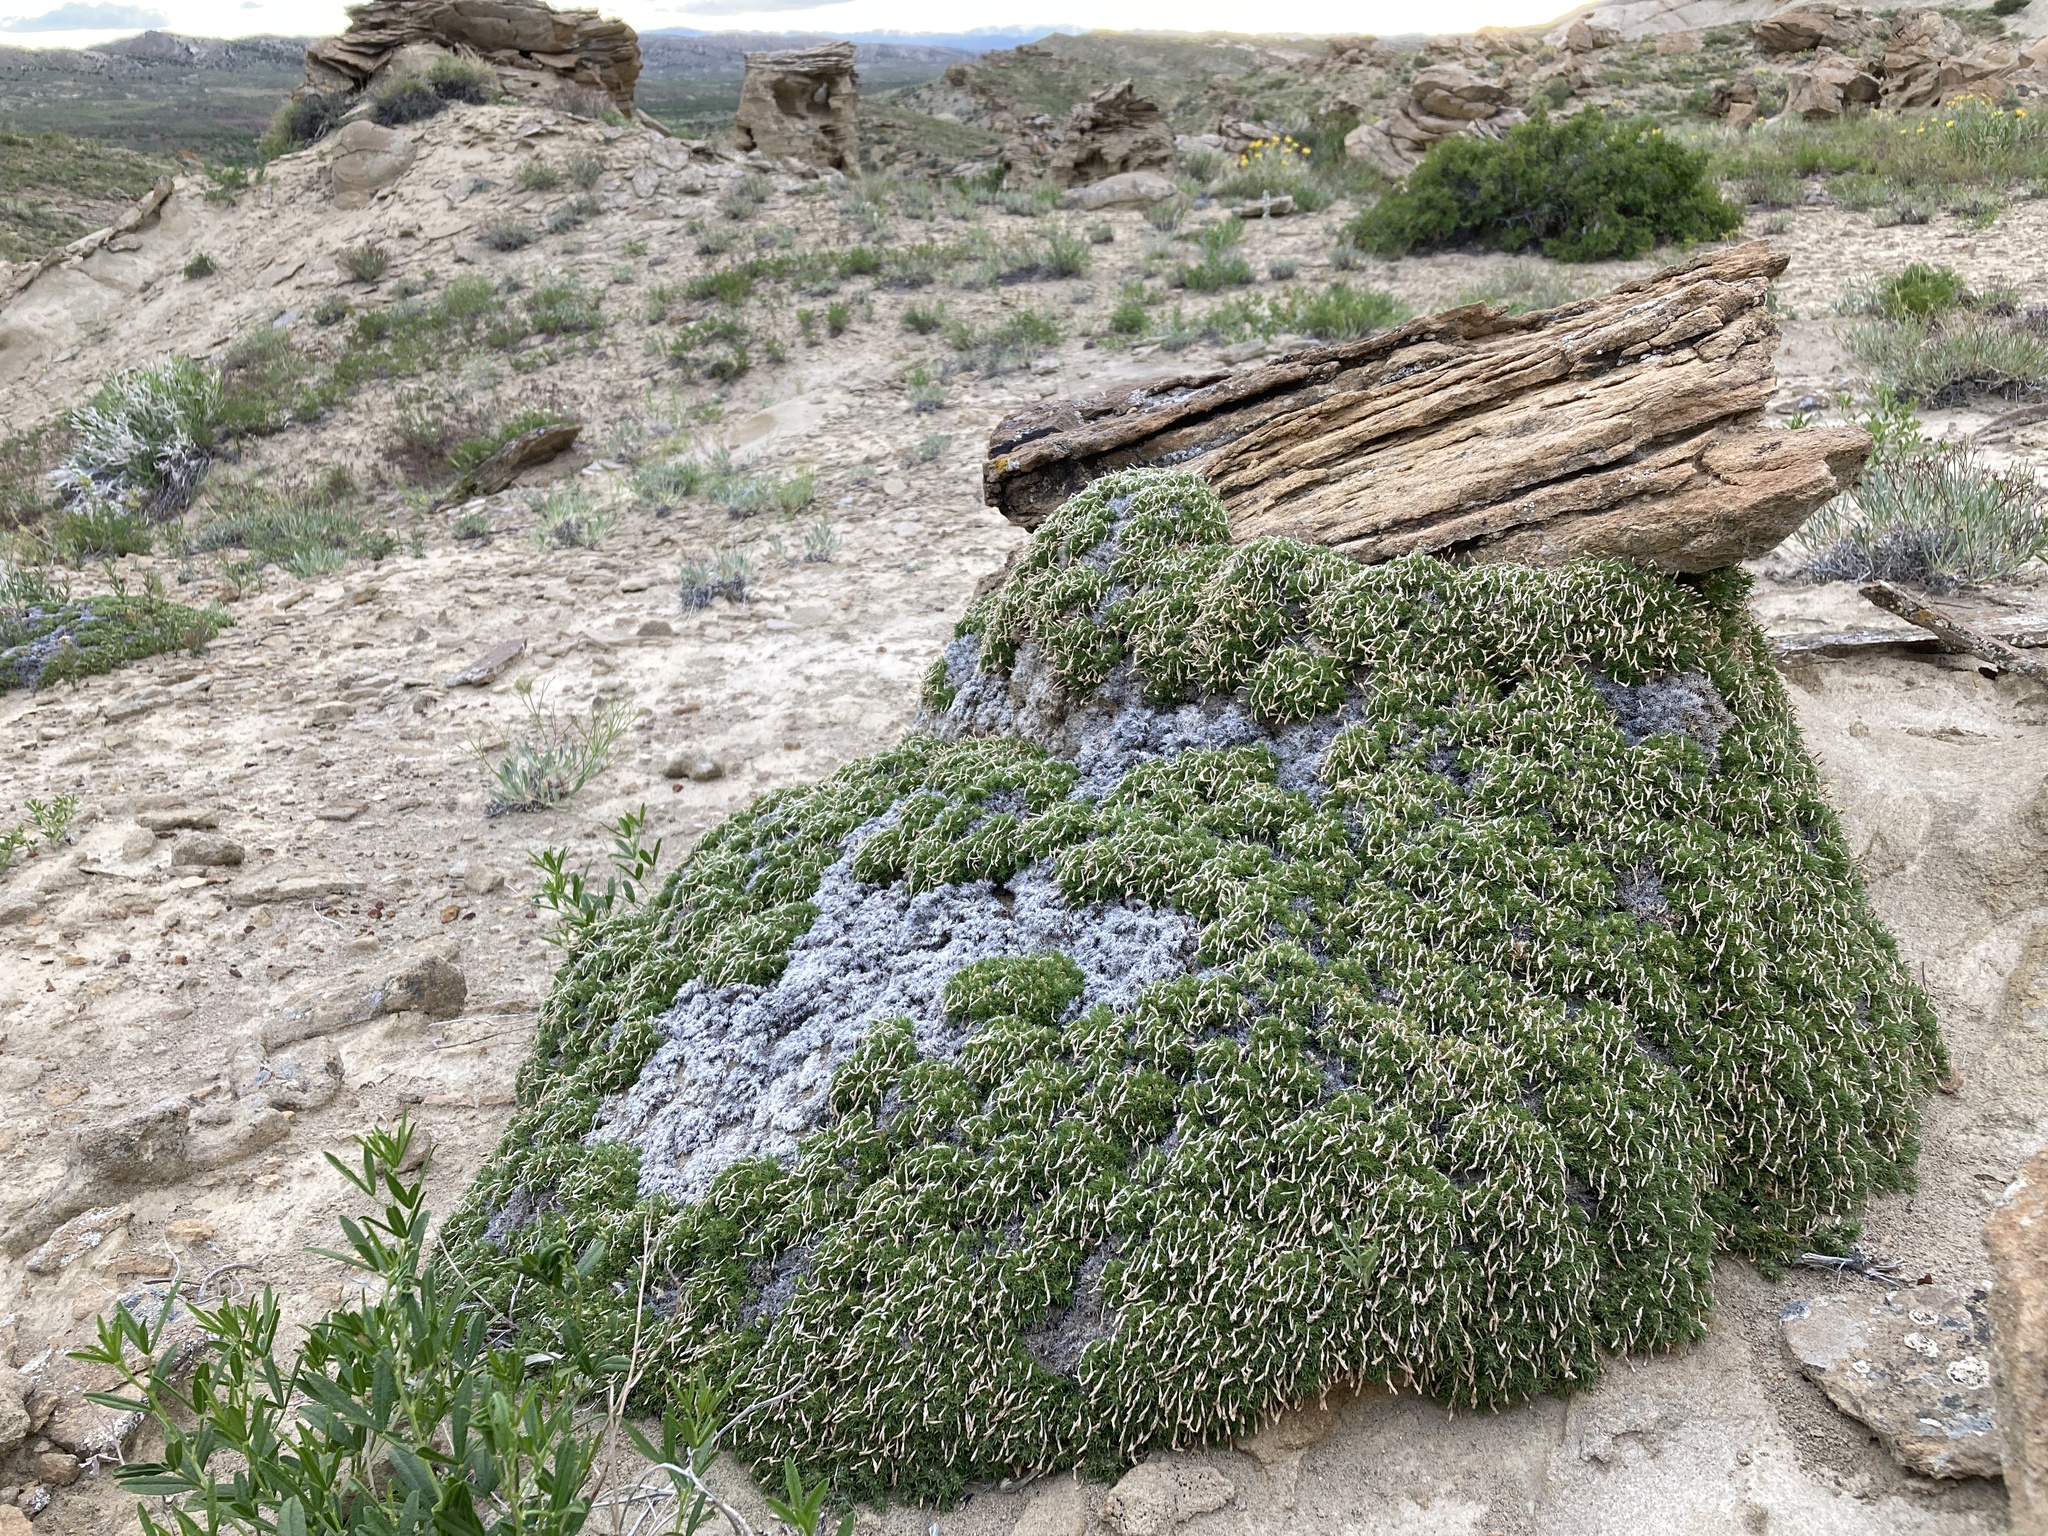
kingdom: Plantae
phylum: Tracheophyta
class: Magnoliopsida
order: Ericales
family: Polemoniaceae
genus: Linanthus
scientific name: Linanthus caespitosus
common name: Mat prickly phlox
